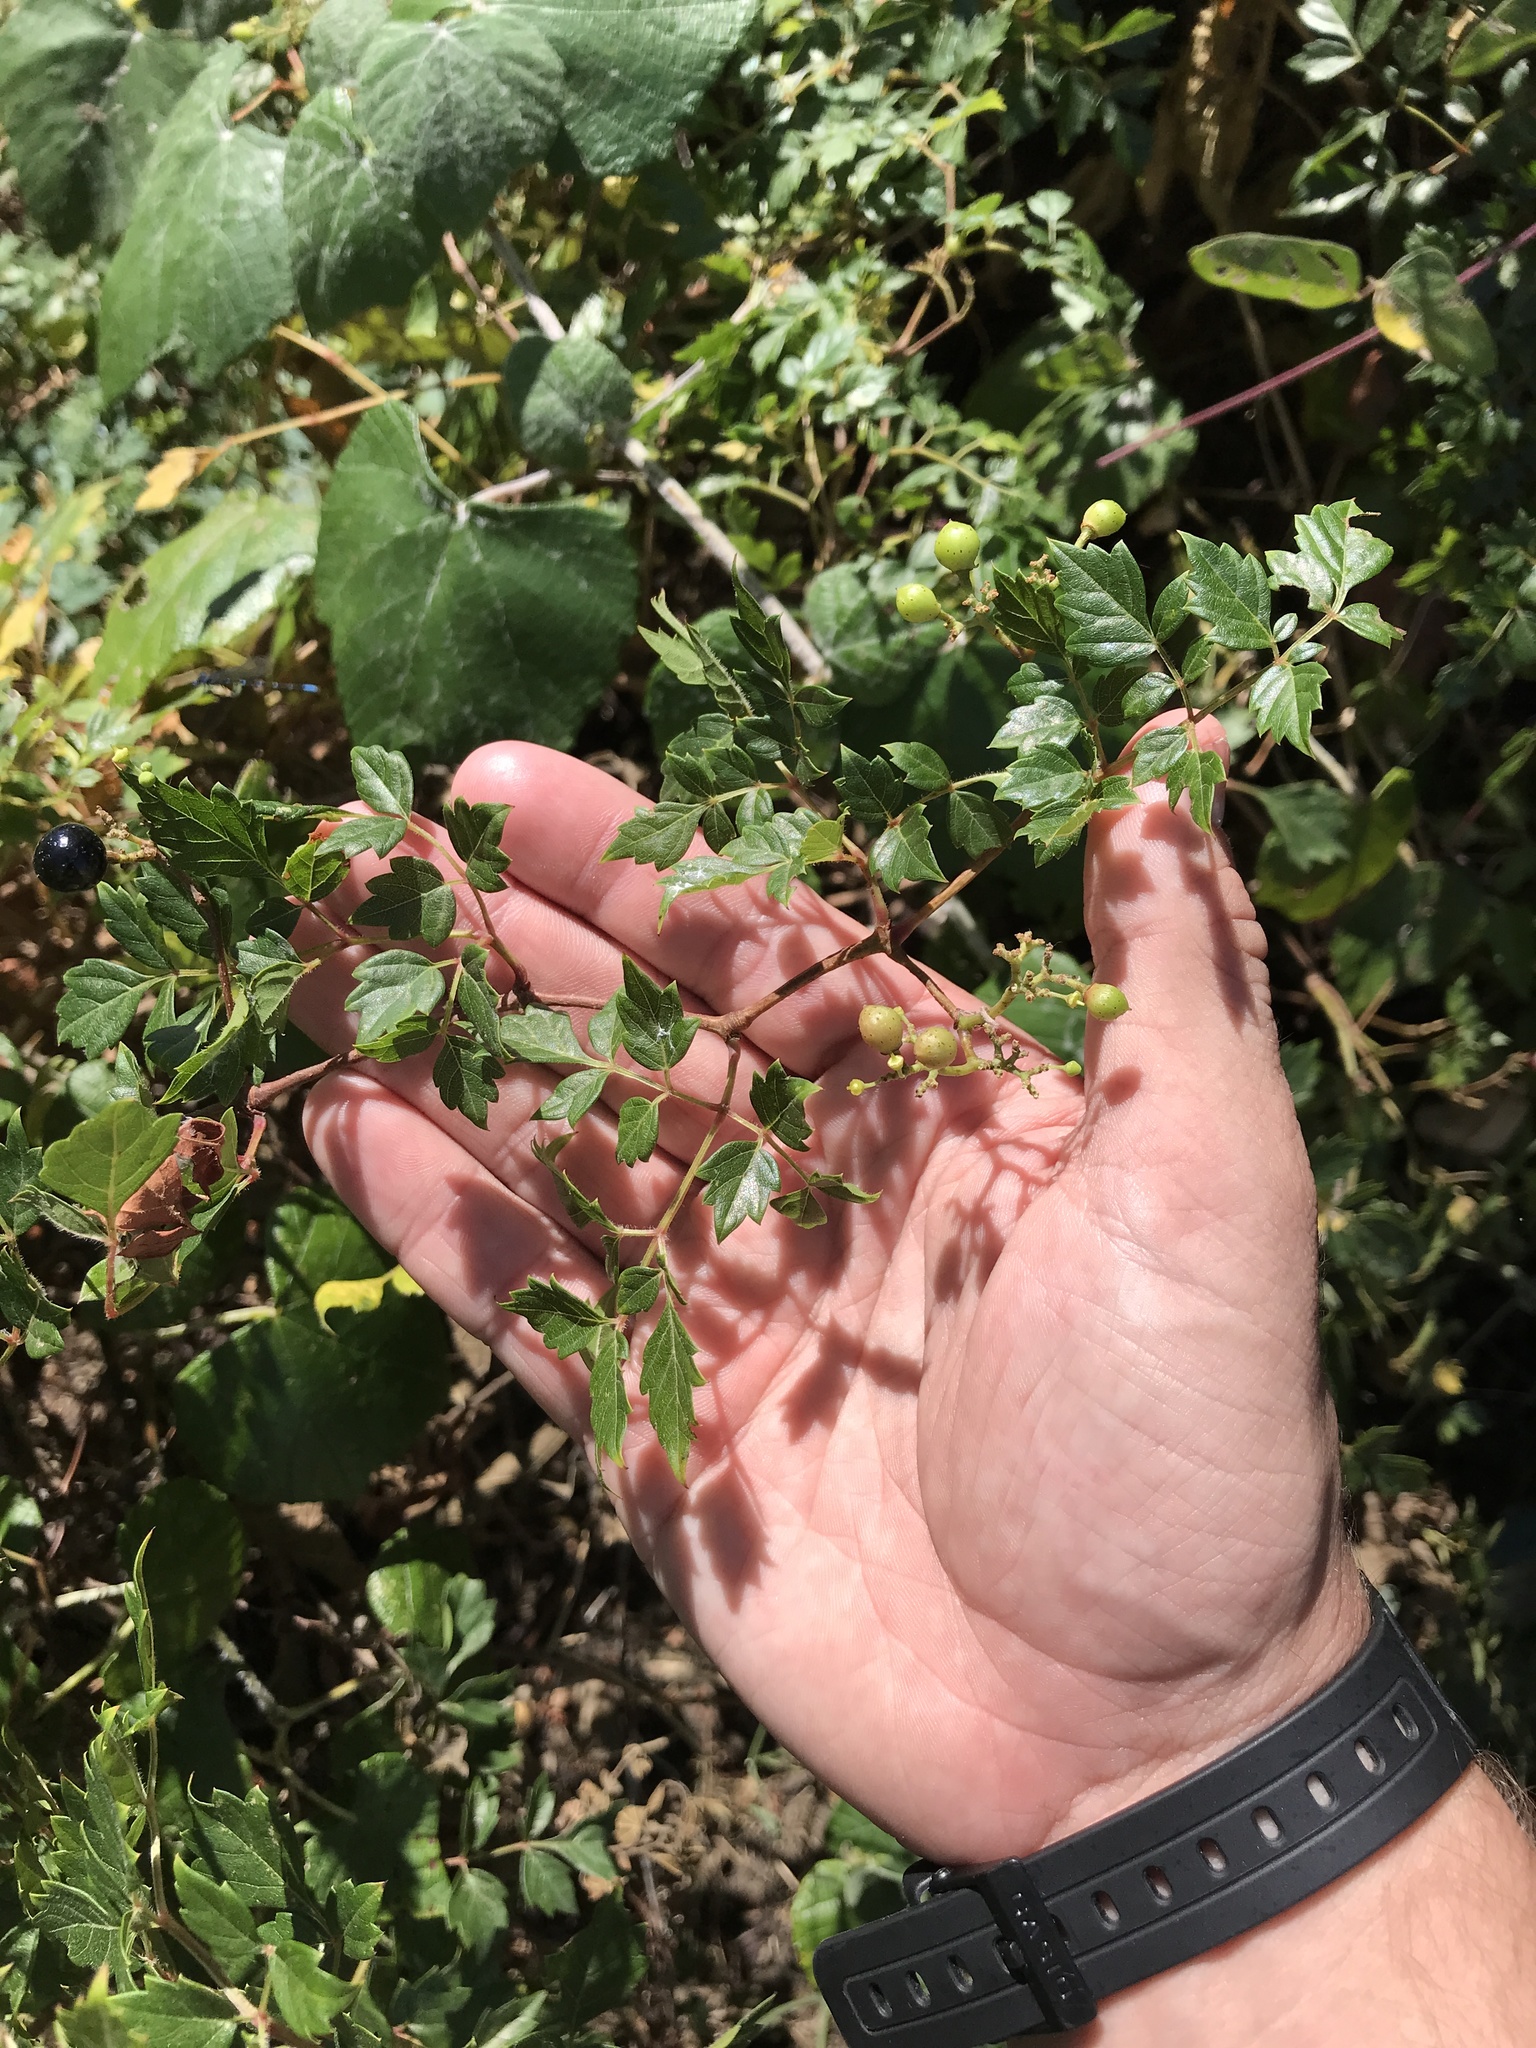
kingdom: Plantae
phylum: Tracheophyta
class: Magnoliopsida
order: Vitales
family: Vitaceae
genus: Nekemias
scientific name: Nekemias arborea
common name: Peppervine
